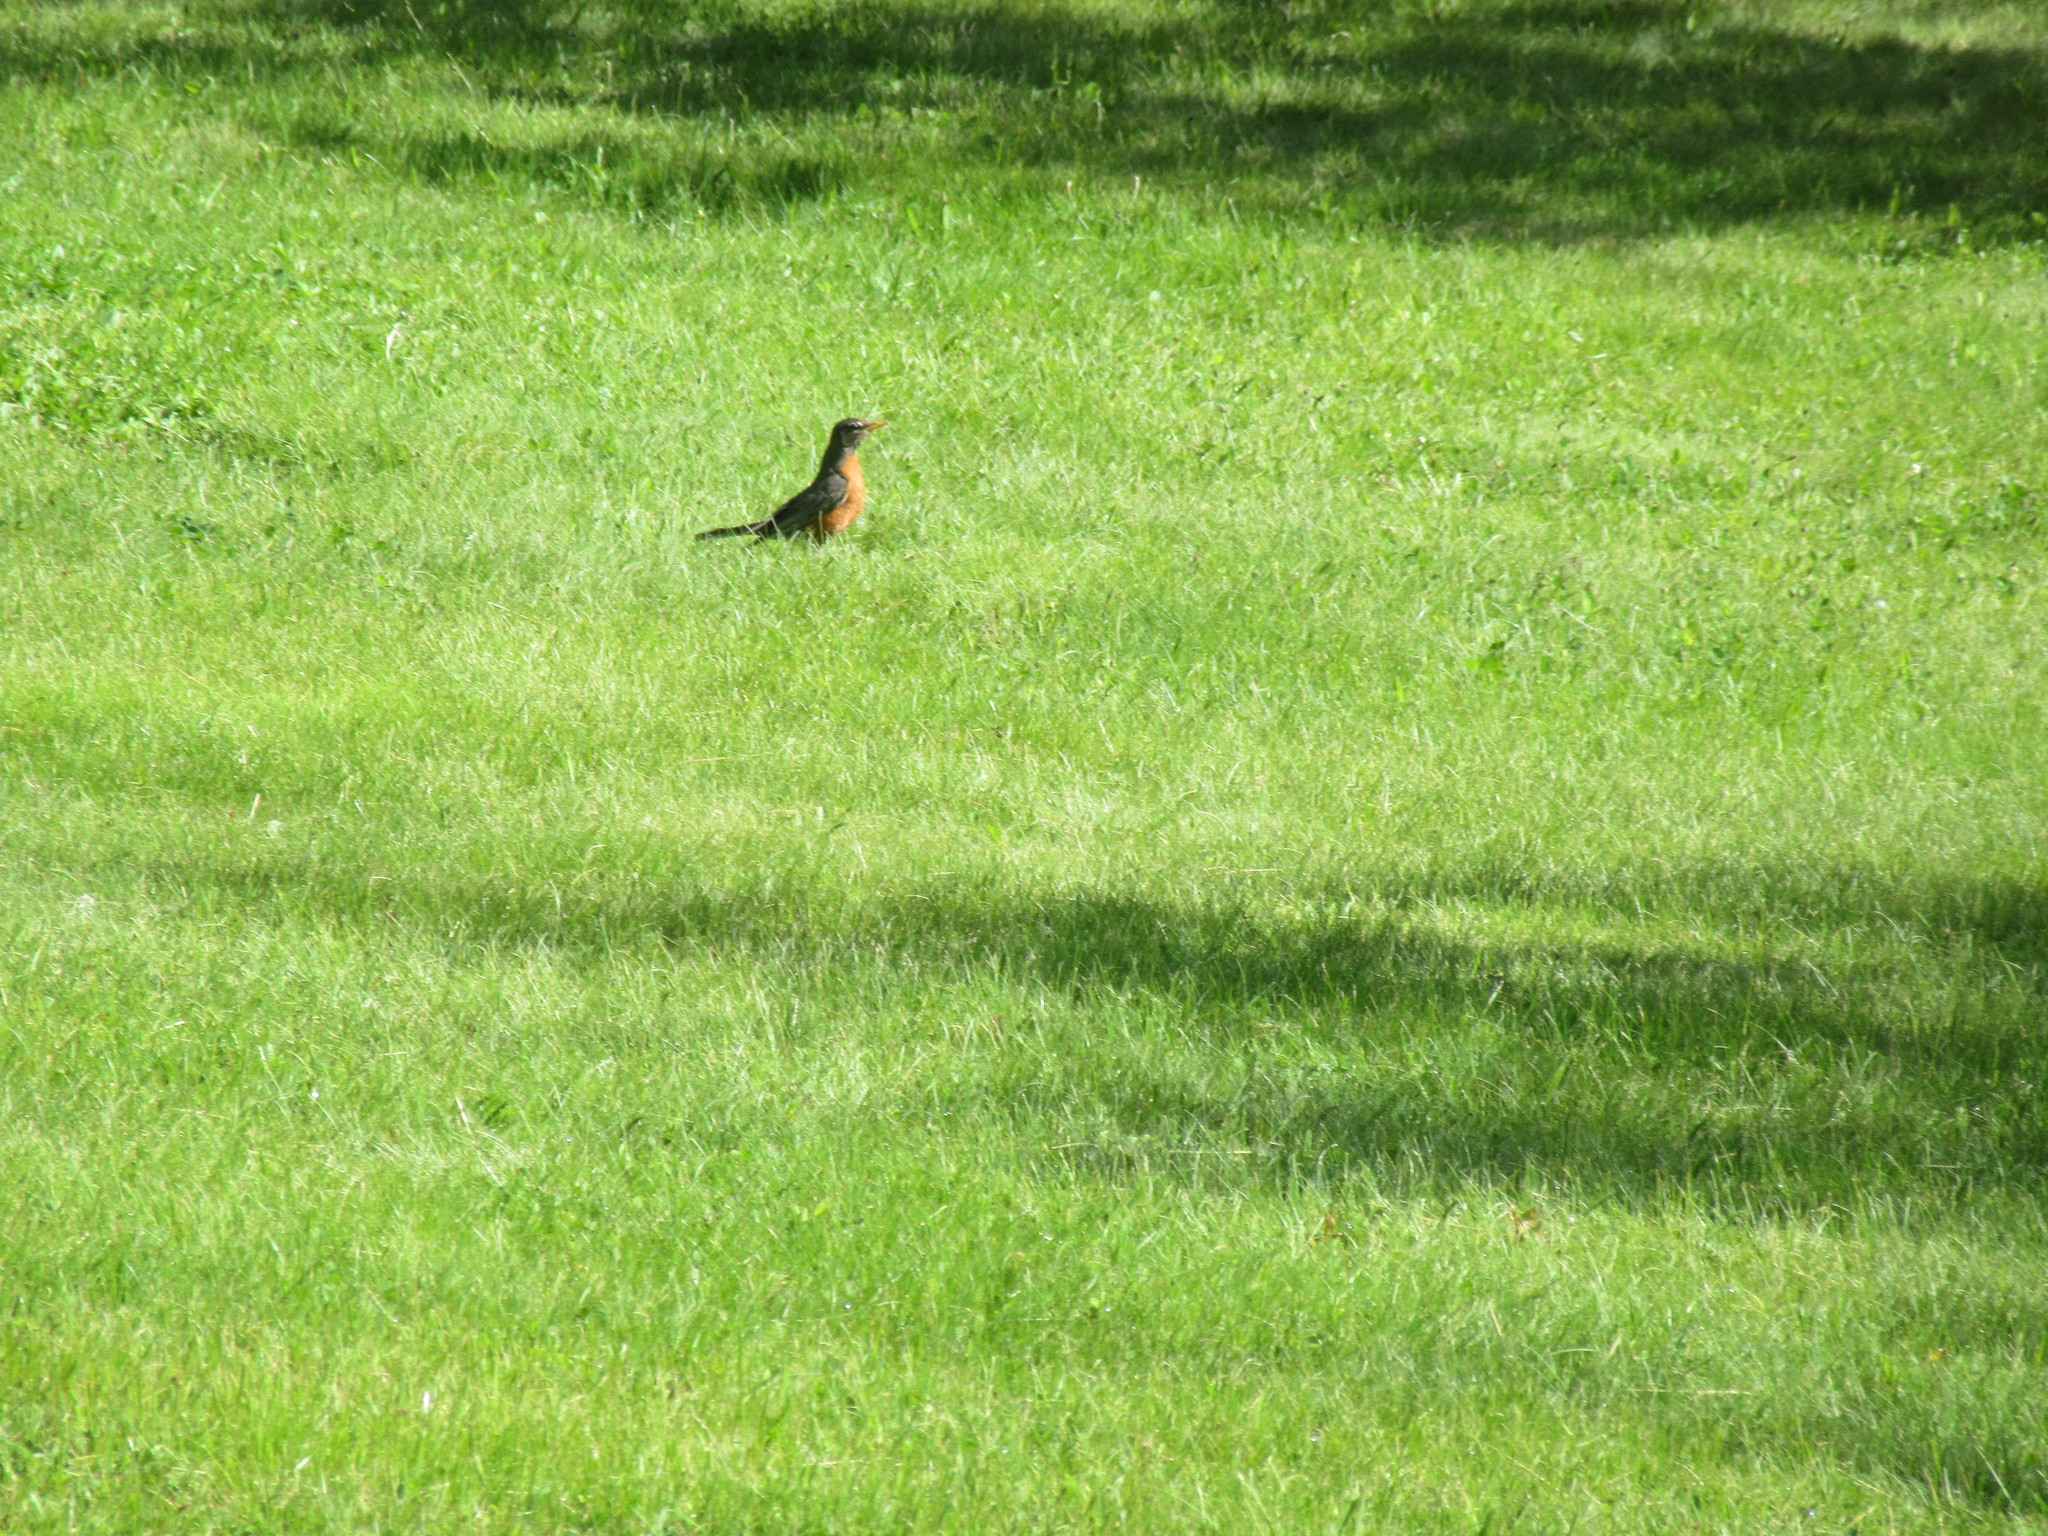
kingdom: Animalia
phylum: Chordata
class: Aves
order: Passeriformes
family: Turdidae
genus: Turdus
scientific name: Turdus migratorius
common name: American robin
